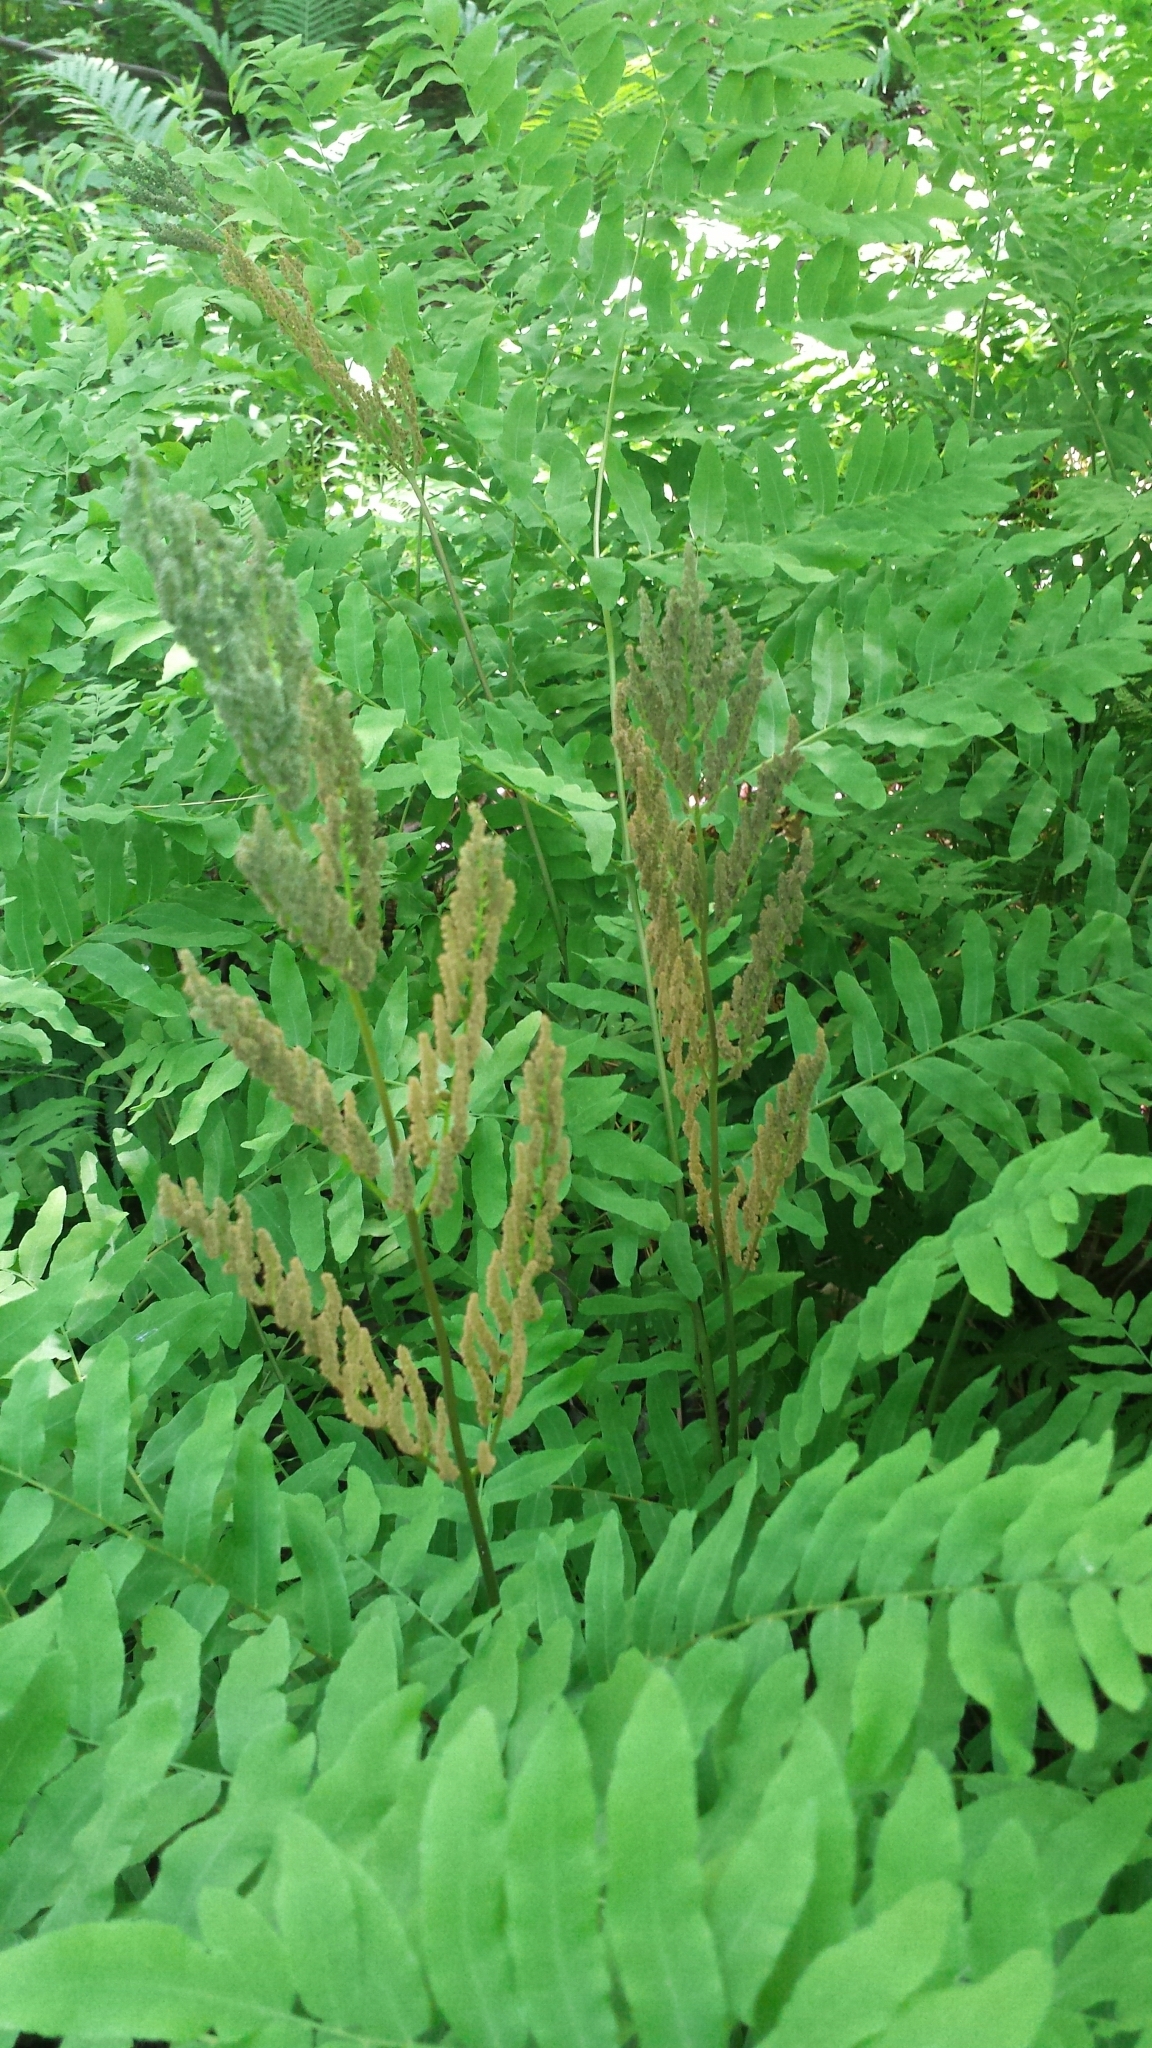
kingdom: Plantae
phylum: Tracheophyta
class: Polypodiopsida
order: Osmundales
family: Osmundaceae
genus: Osmunda
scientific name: Osmunda spectabilis
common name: American royal fern
